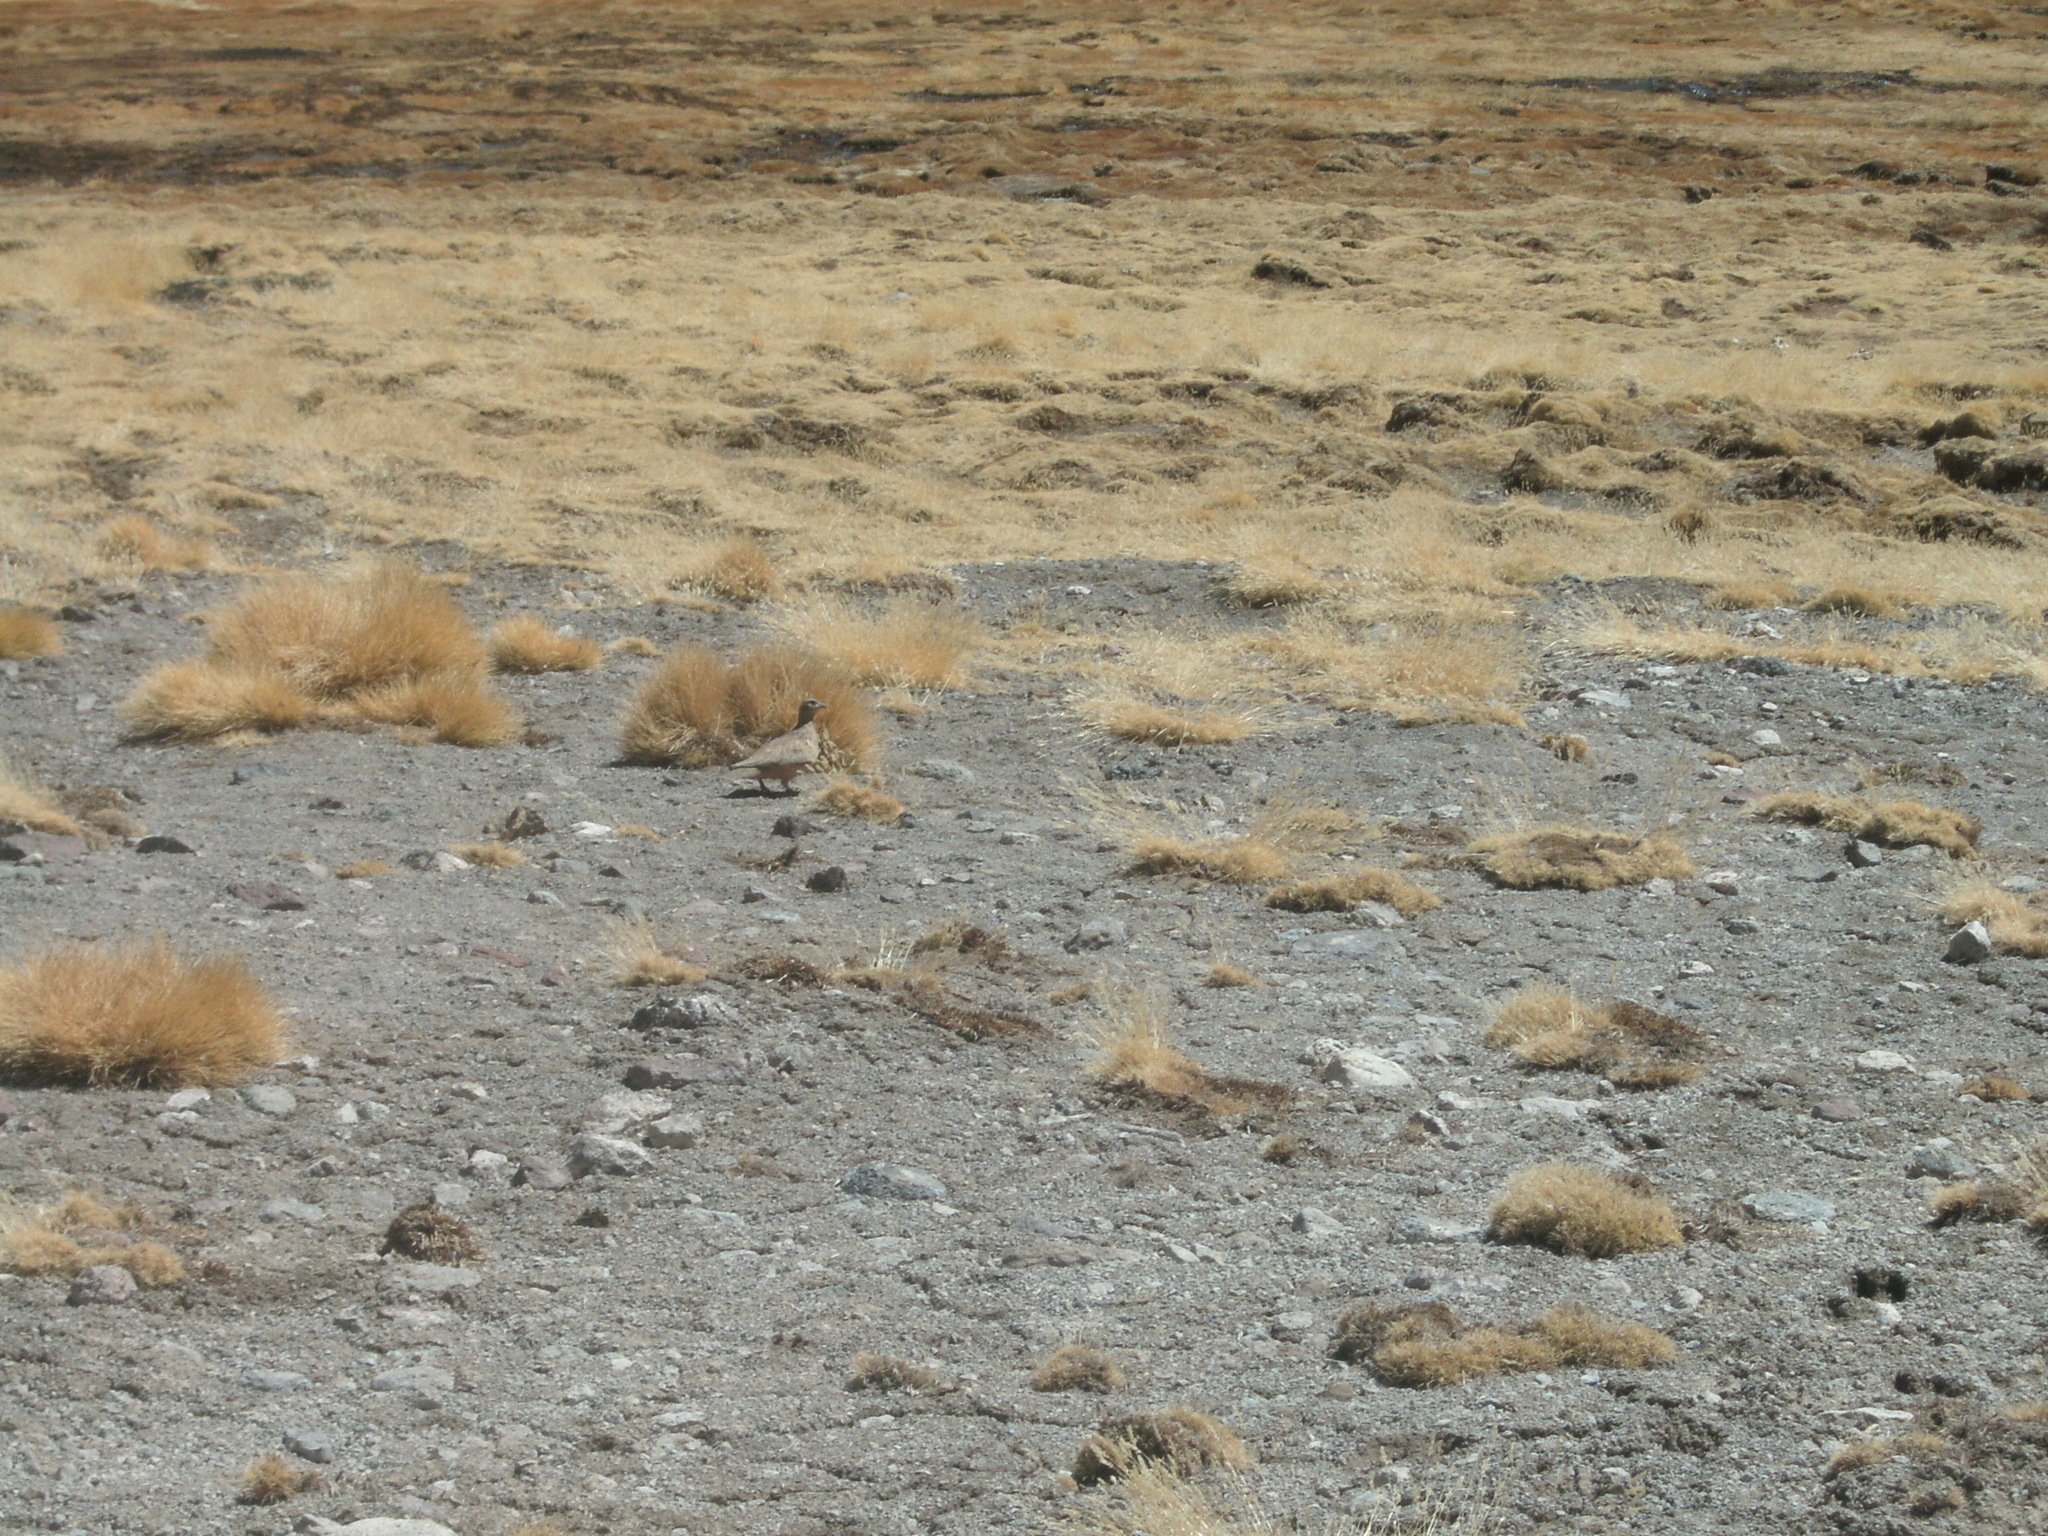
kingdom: Animalia
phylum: Chordata
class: Aves
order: Charadriiformes
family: Thinocoridae
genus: Attagis
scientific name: Attagis gayi
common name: Rufous-bellied seedsnipe
